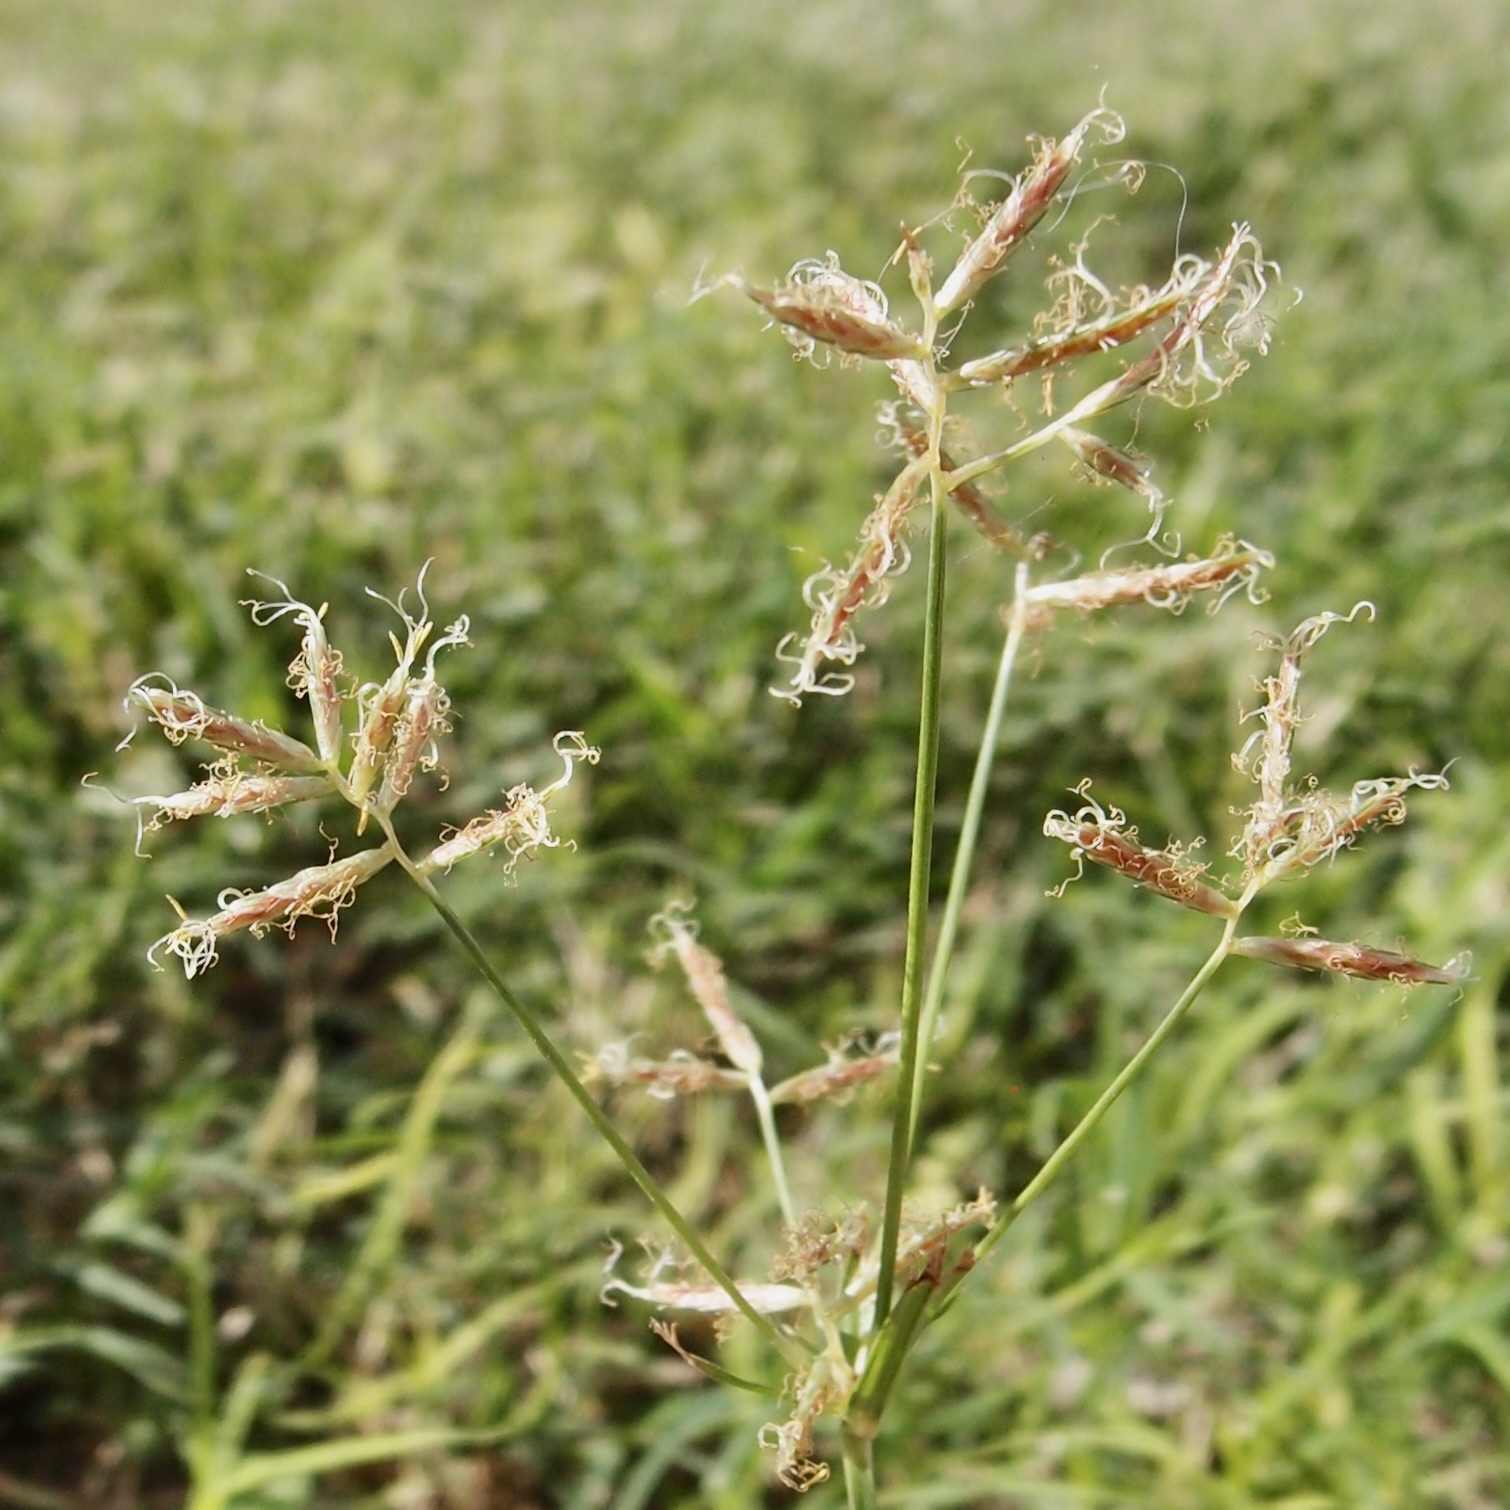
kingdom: Plantae
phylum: Tracheophyta
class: Liliopsida
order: Poales
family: Cyperaceae
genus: Cyperus
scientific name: Cyperus rotundus
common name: Nutgrass
